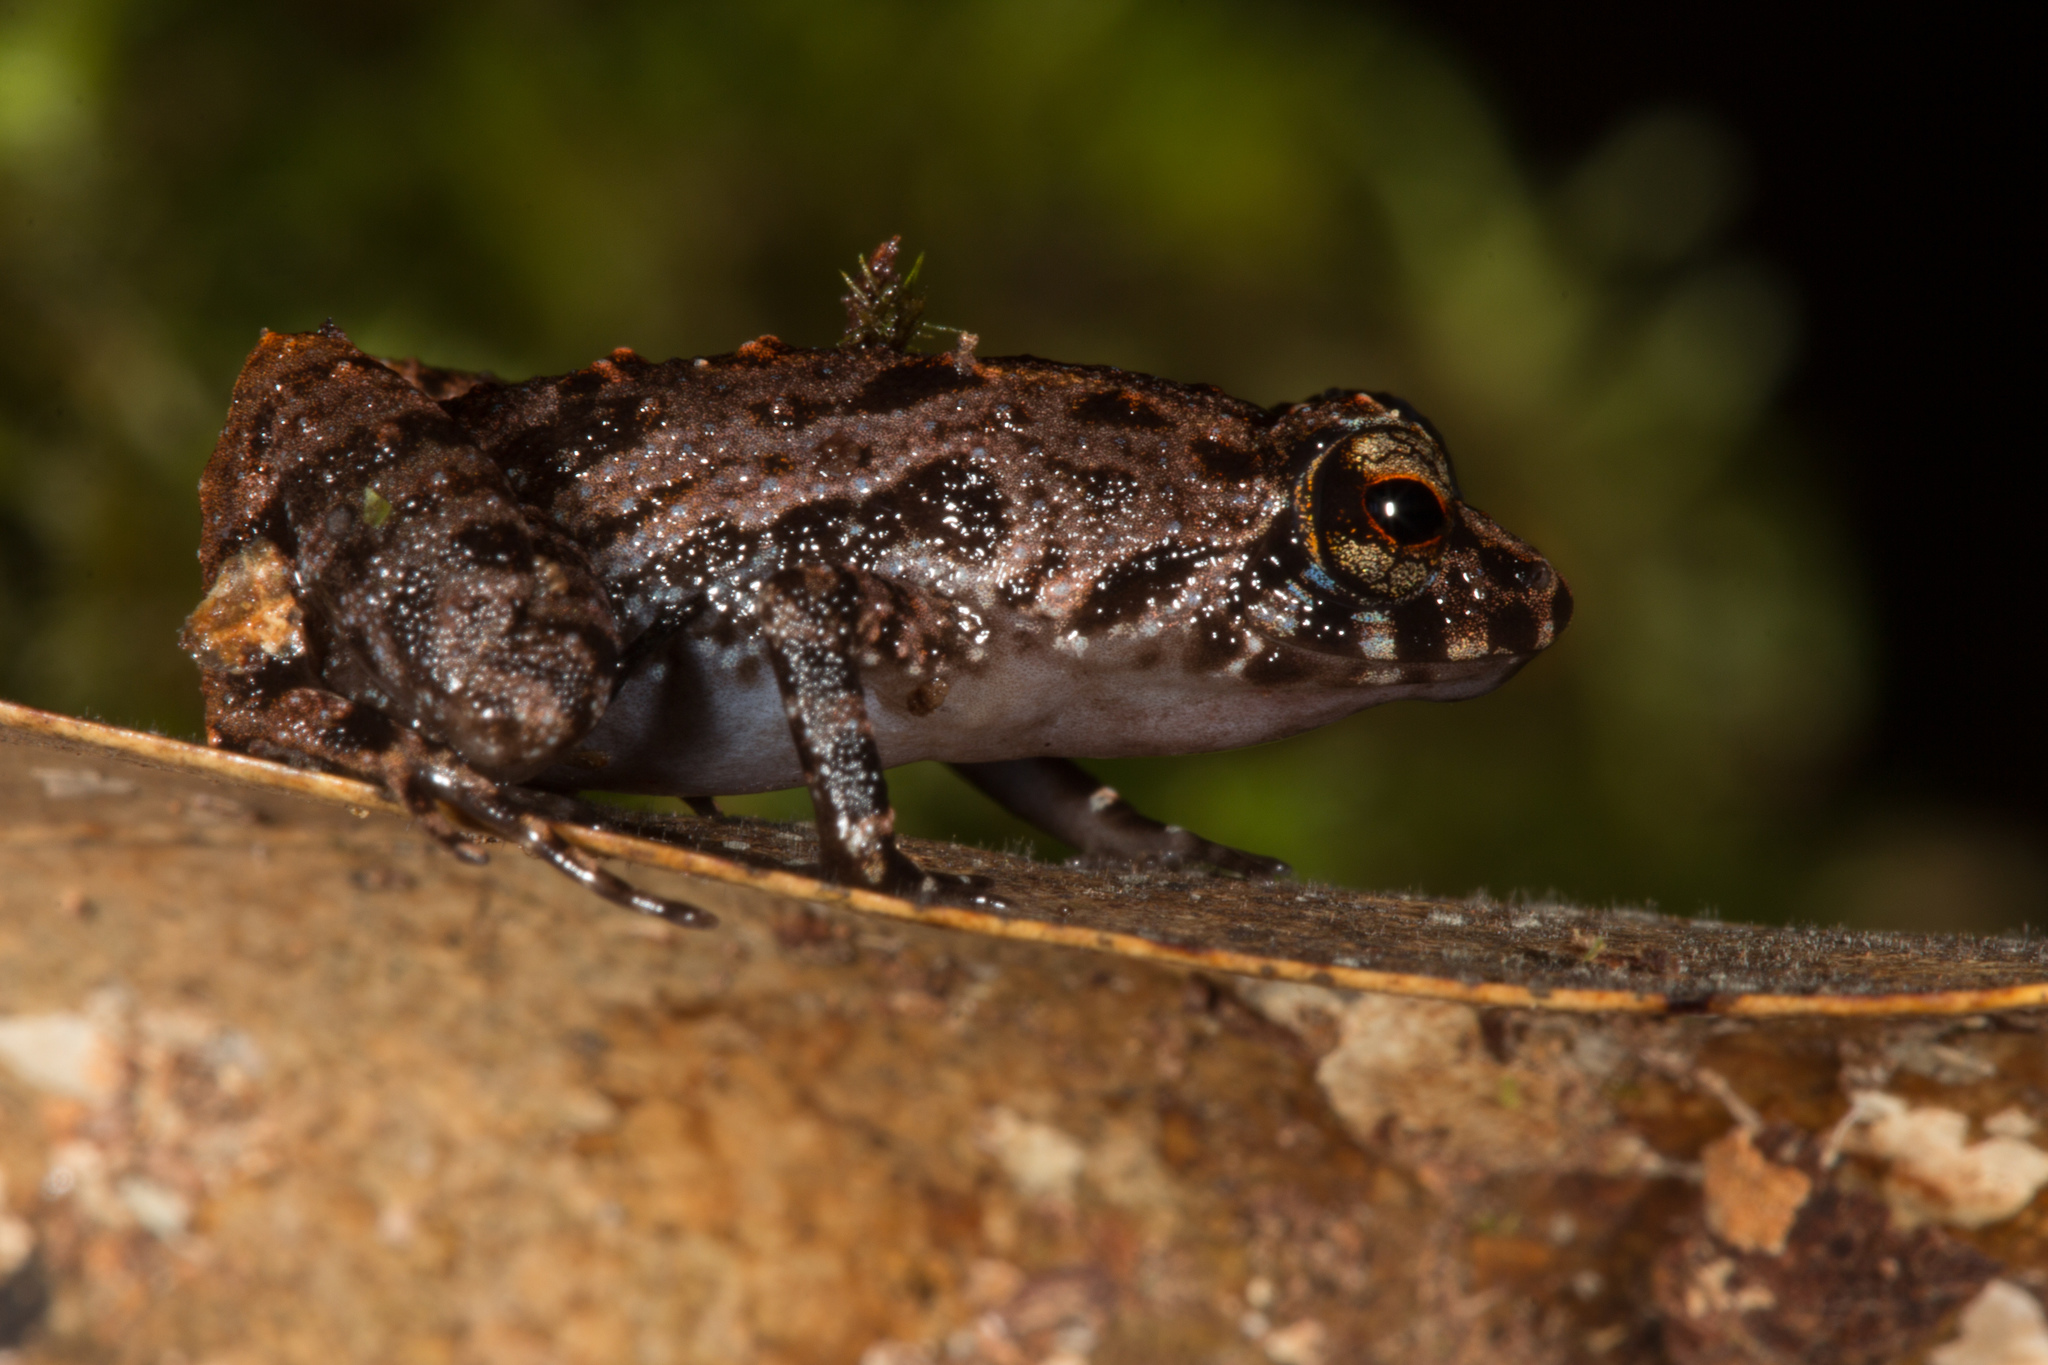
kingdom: Animalia
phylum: Chordata
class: Amphibia
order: Anura
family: Sooglossidae
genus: Sooglossus
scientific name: Sooglossus sechellensis
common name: Seychelles frog
